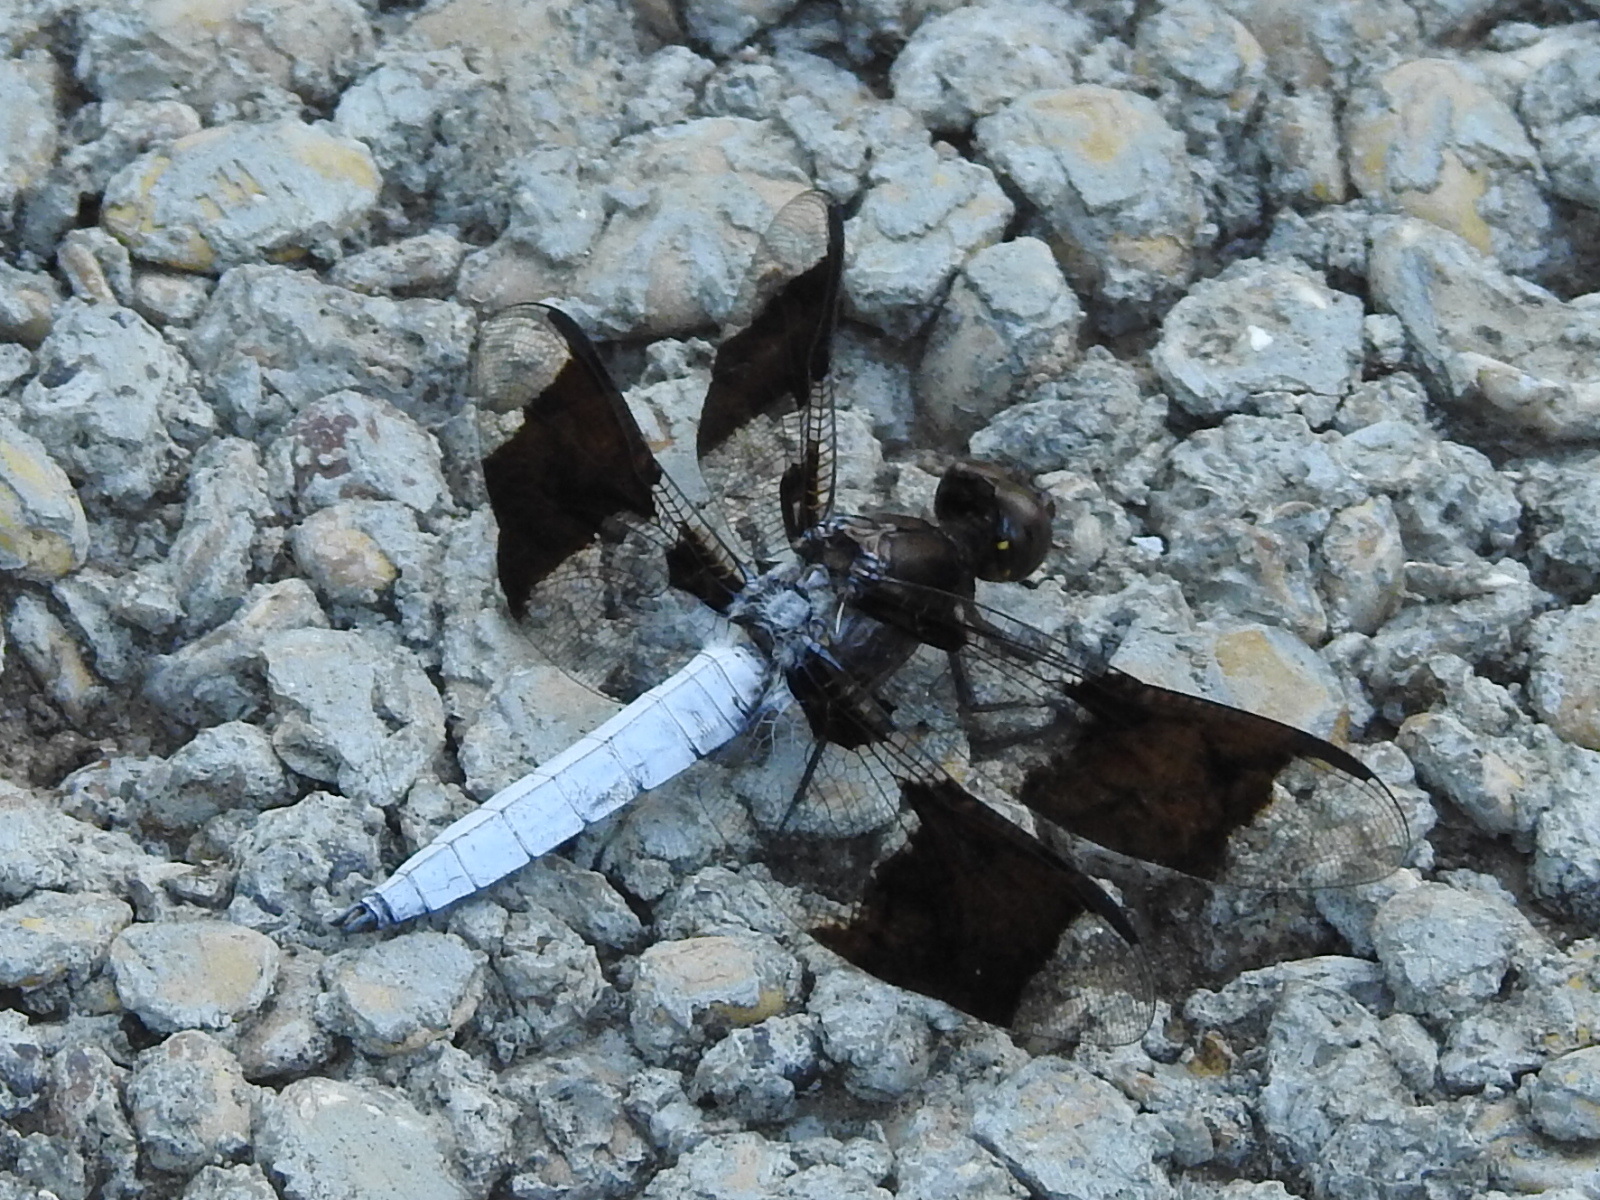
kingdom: Animalia
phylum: Arthropoda
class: Insecta
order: Odonata
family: Libellulidae
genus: Plathemis
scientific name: Plathemis lydia
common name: Common whitetail
